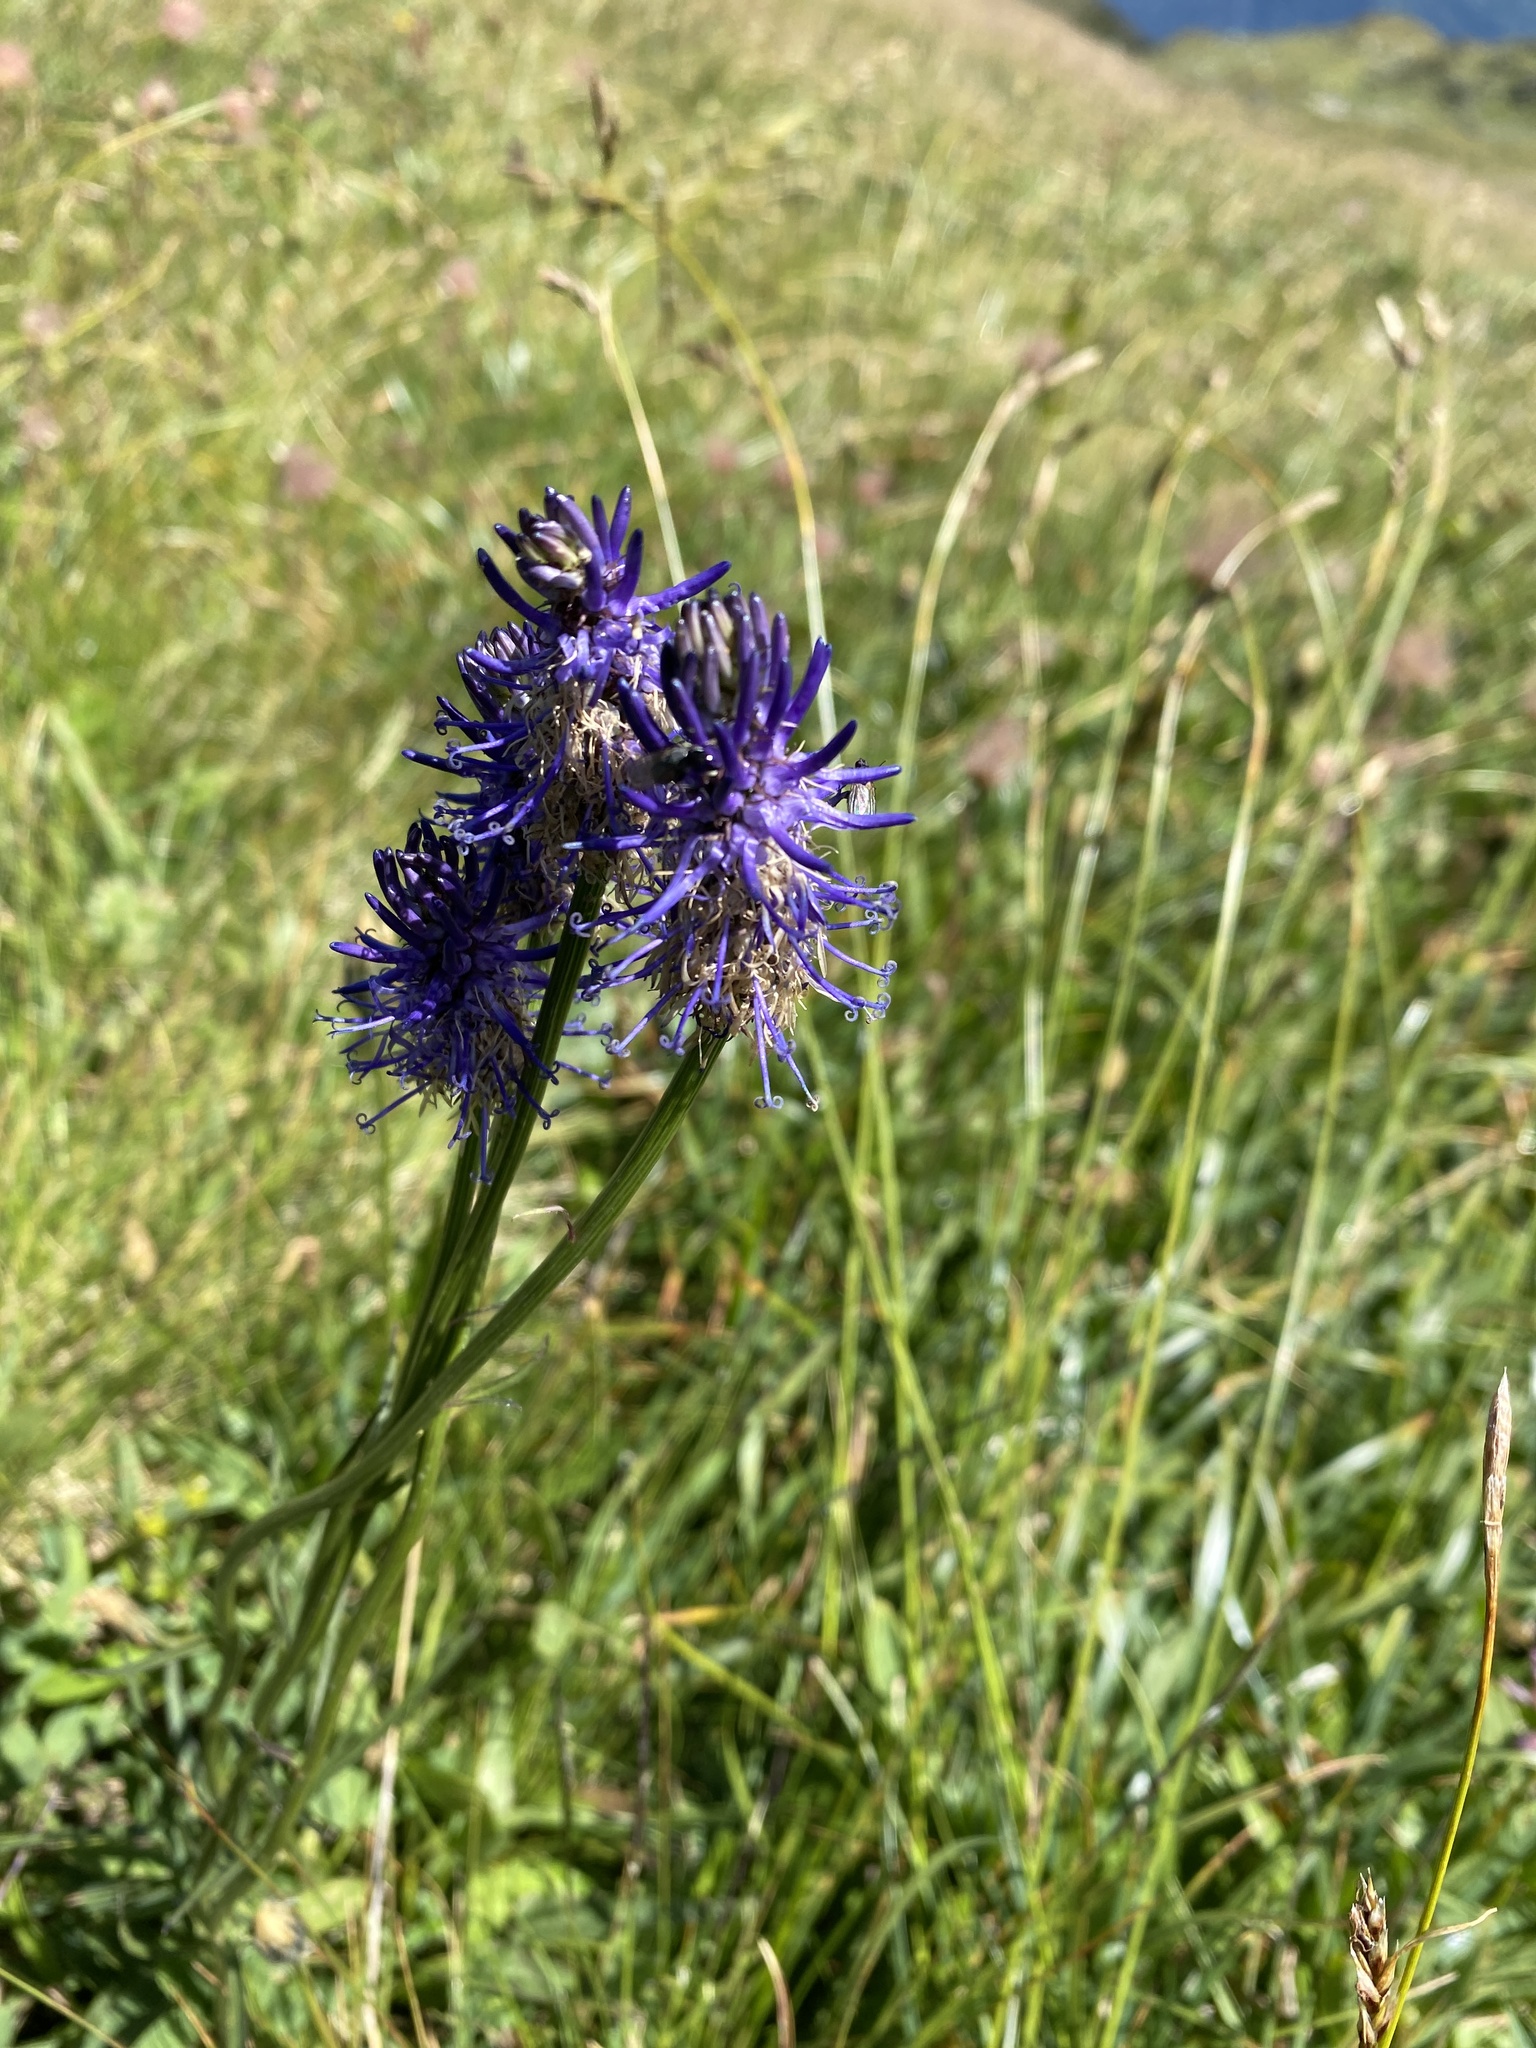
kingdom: Plantae
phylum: Tracheophyta
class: Magnoliopsida
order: Asterales
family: Campanulaceae
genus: Phyteuma
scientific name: Phyteuma betonicifolium
